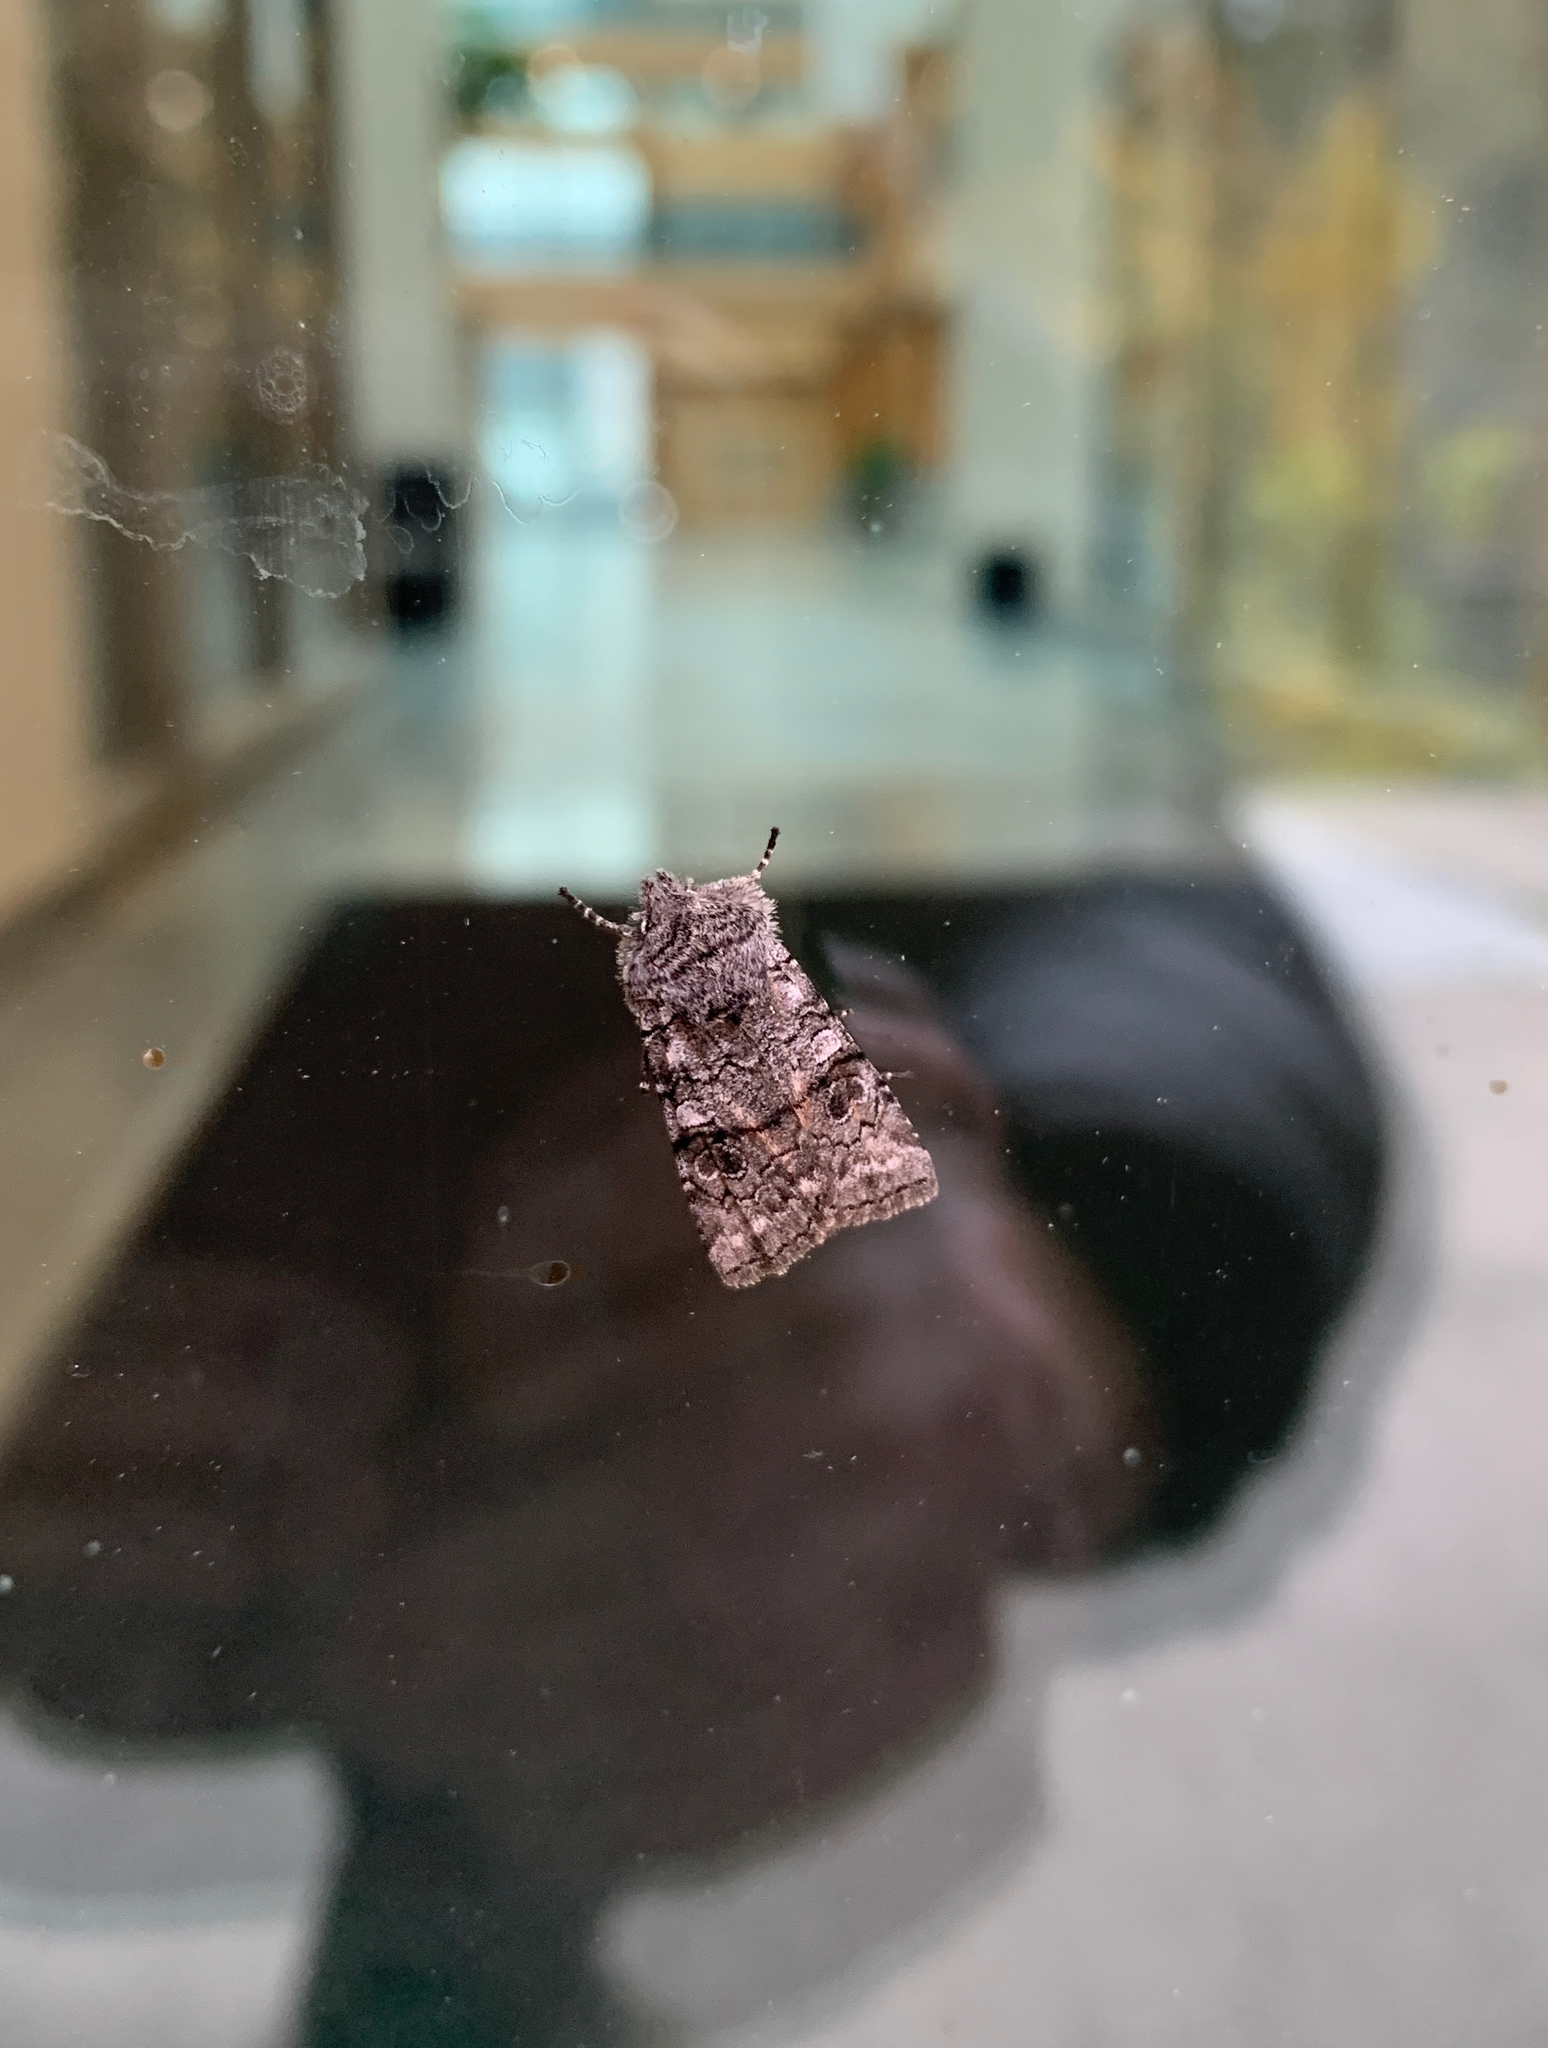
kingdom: Animalia
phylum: Arthropoda
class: Insecta
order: Lepidoptera
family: Noctuidae
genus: Litholomia
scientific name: Litholomia napaea
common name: False pinion moth
